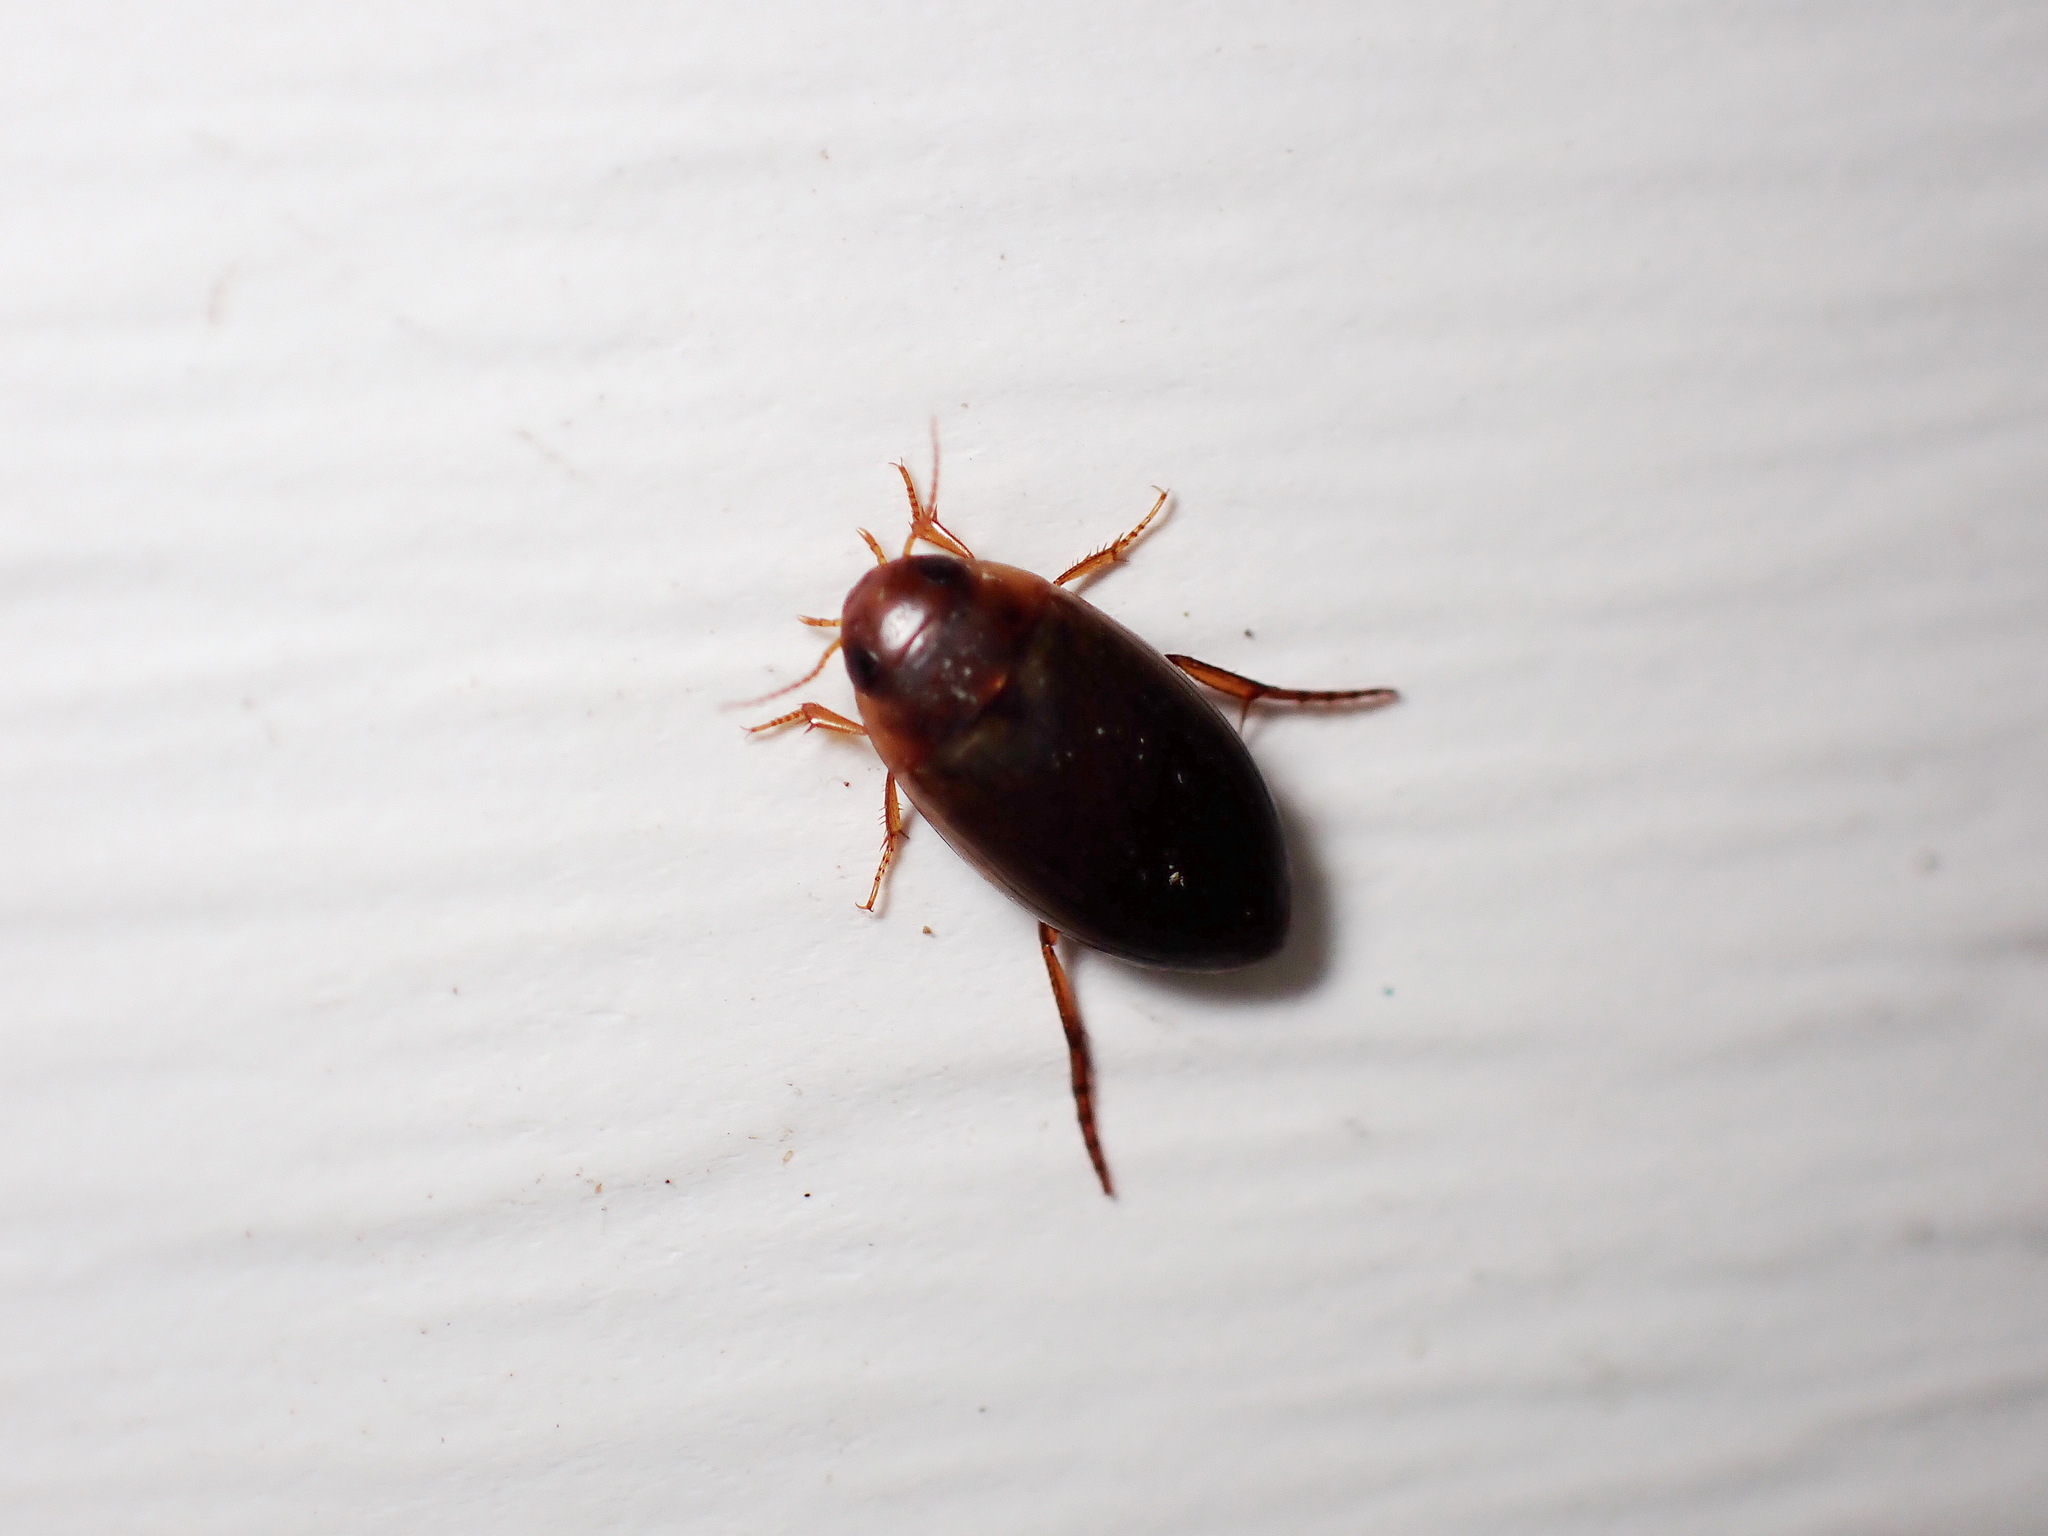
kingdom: Animalia
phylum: Arthropoda
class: Insecta
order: Coleoptera
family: Dytiscidae
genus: Copelatus
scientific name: Copelatus chevrolati
